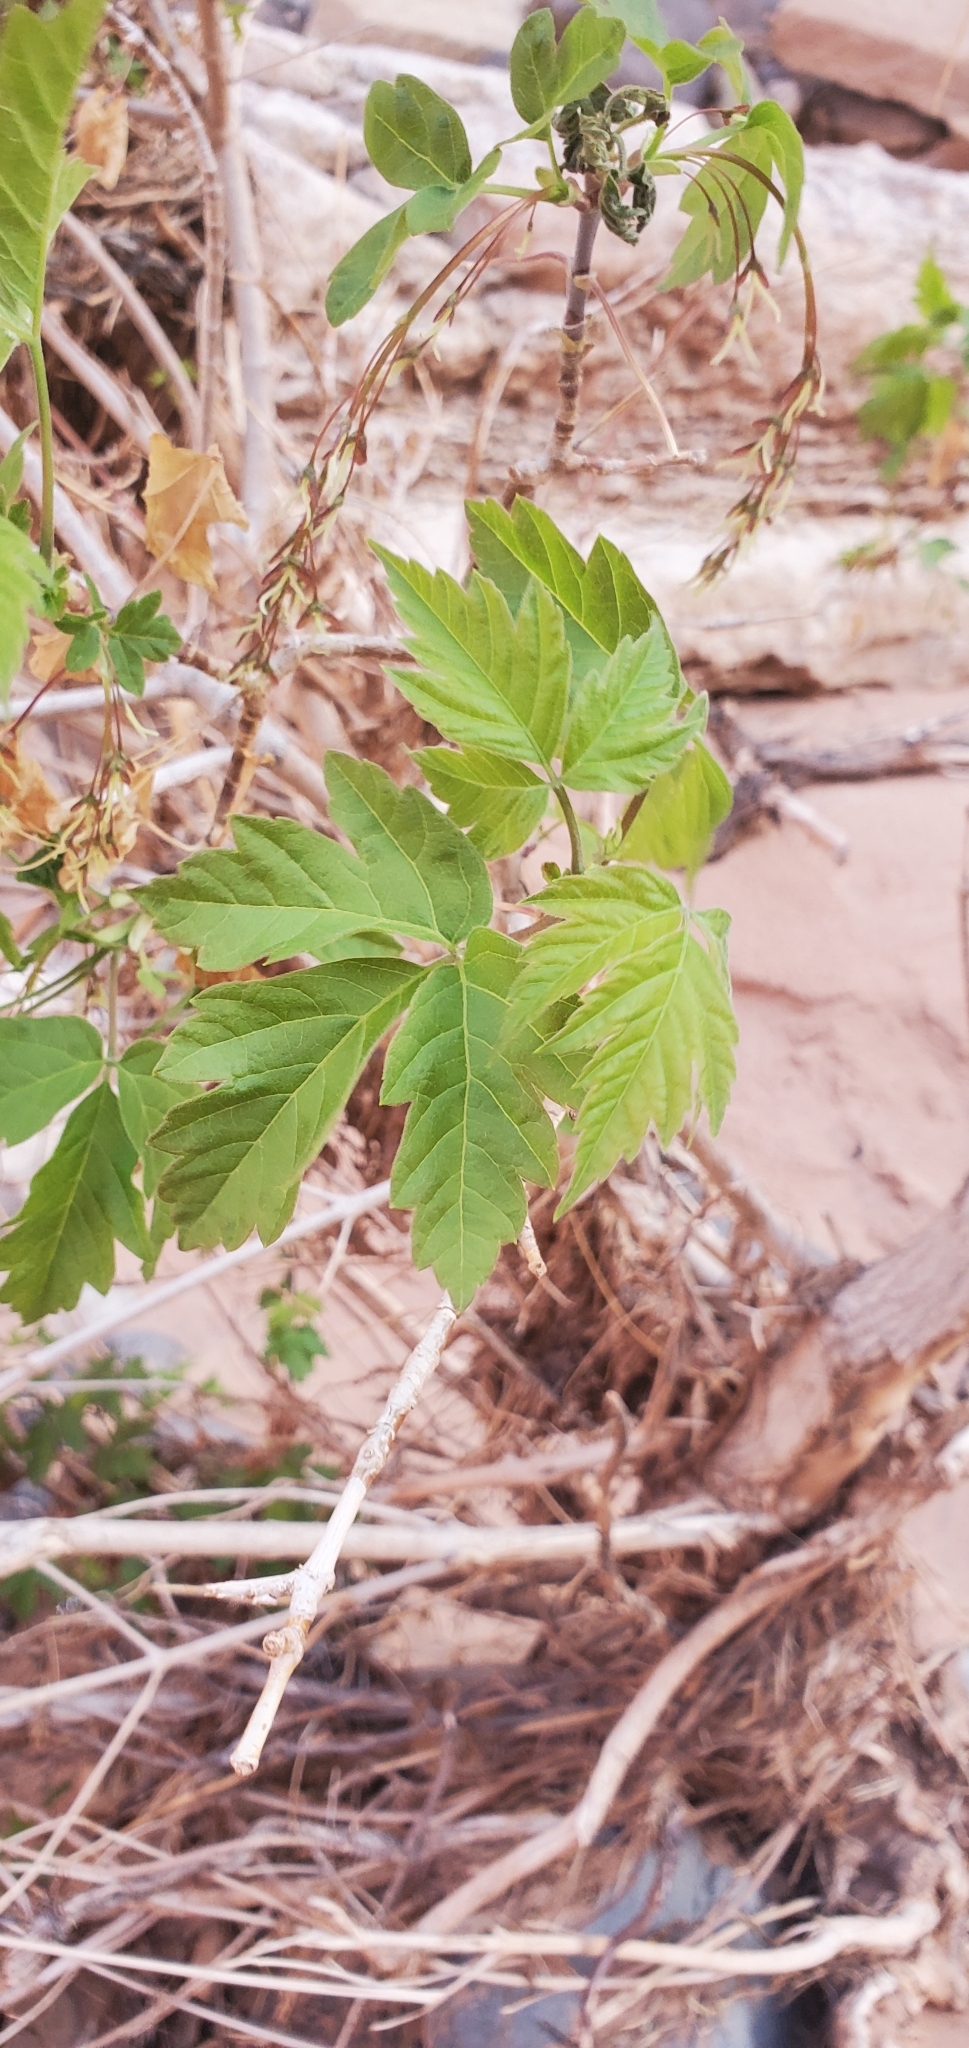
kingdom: Plantae
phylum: Tracheophyta
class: Magnoliopsida
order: Sapindales
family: Sapindaceae
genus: Acer
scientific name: Acer negundo
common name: Ashleaf maple
